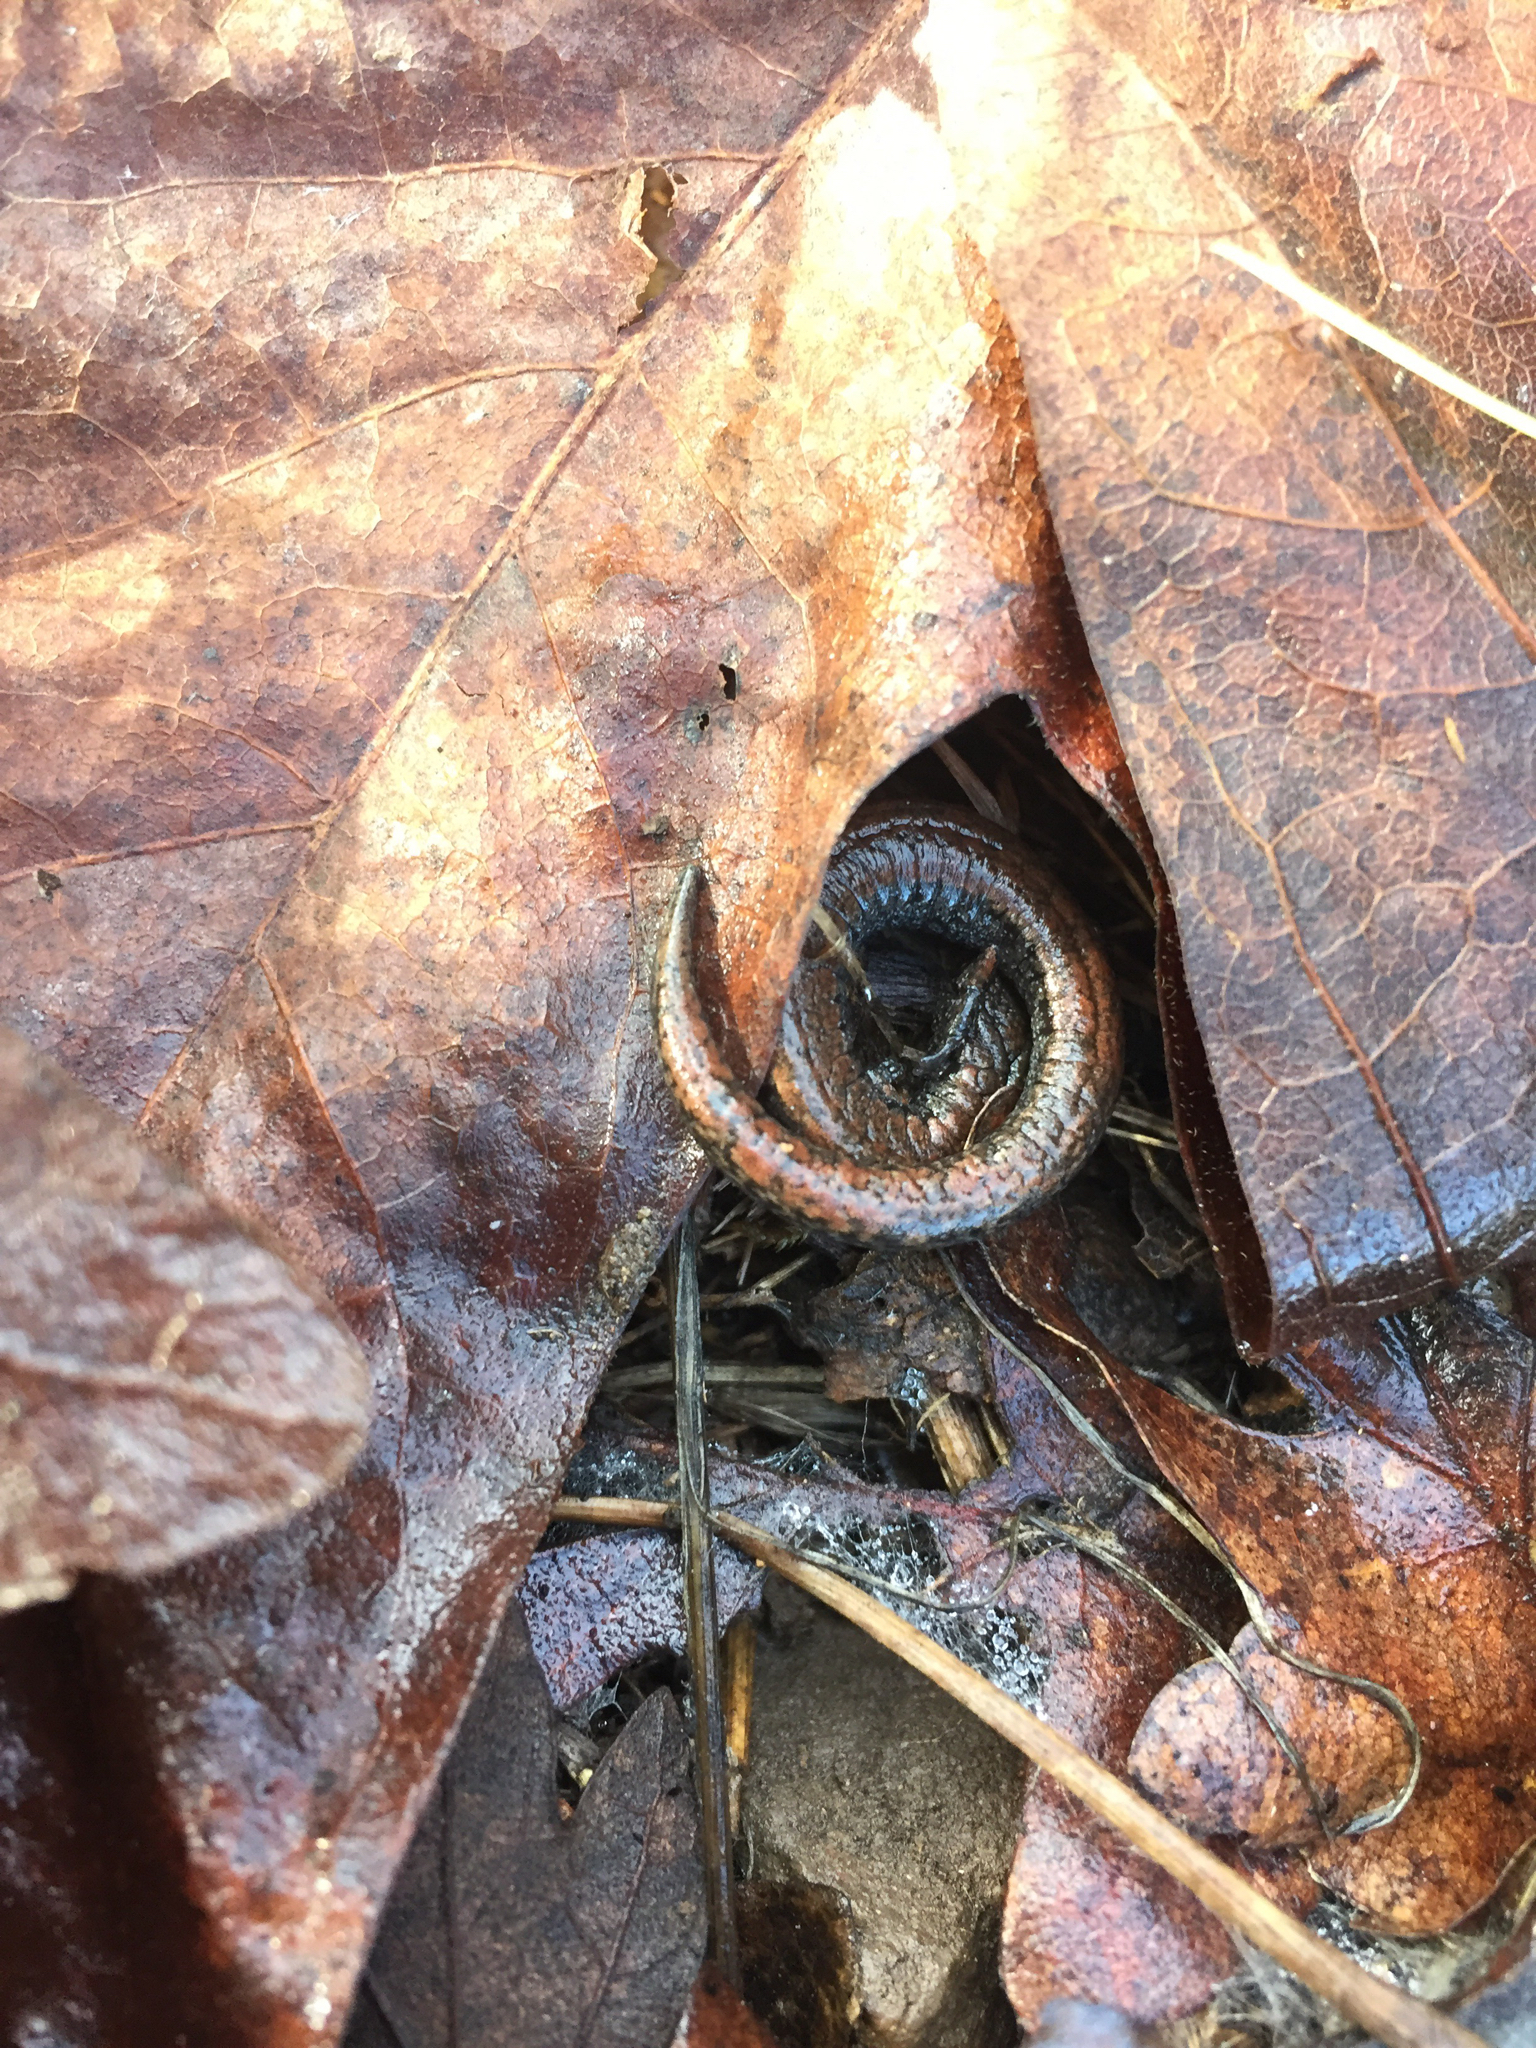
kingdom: Animalia
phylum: Chordata
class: Amphibia
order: Caudata
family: Plethodontidae
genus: Batrachoseps
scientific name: Batrachoseps attenuatus
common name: California slender salamander
